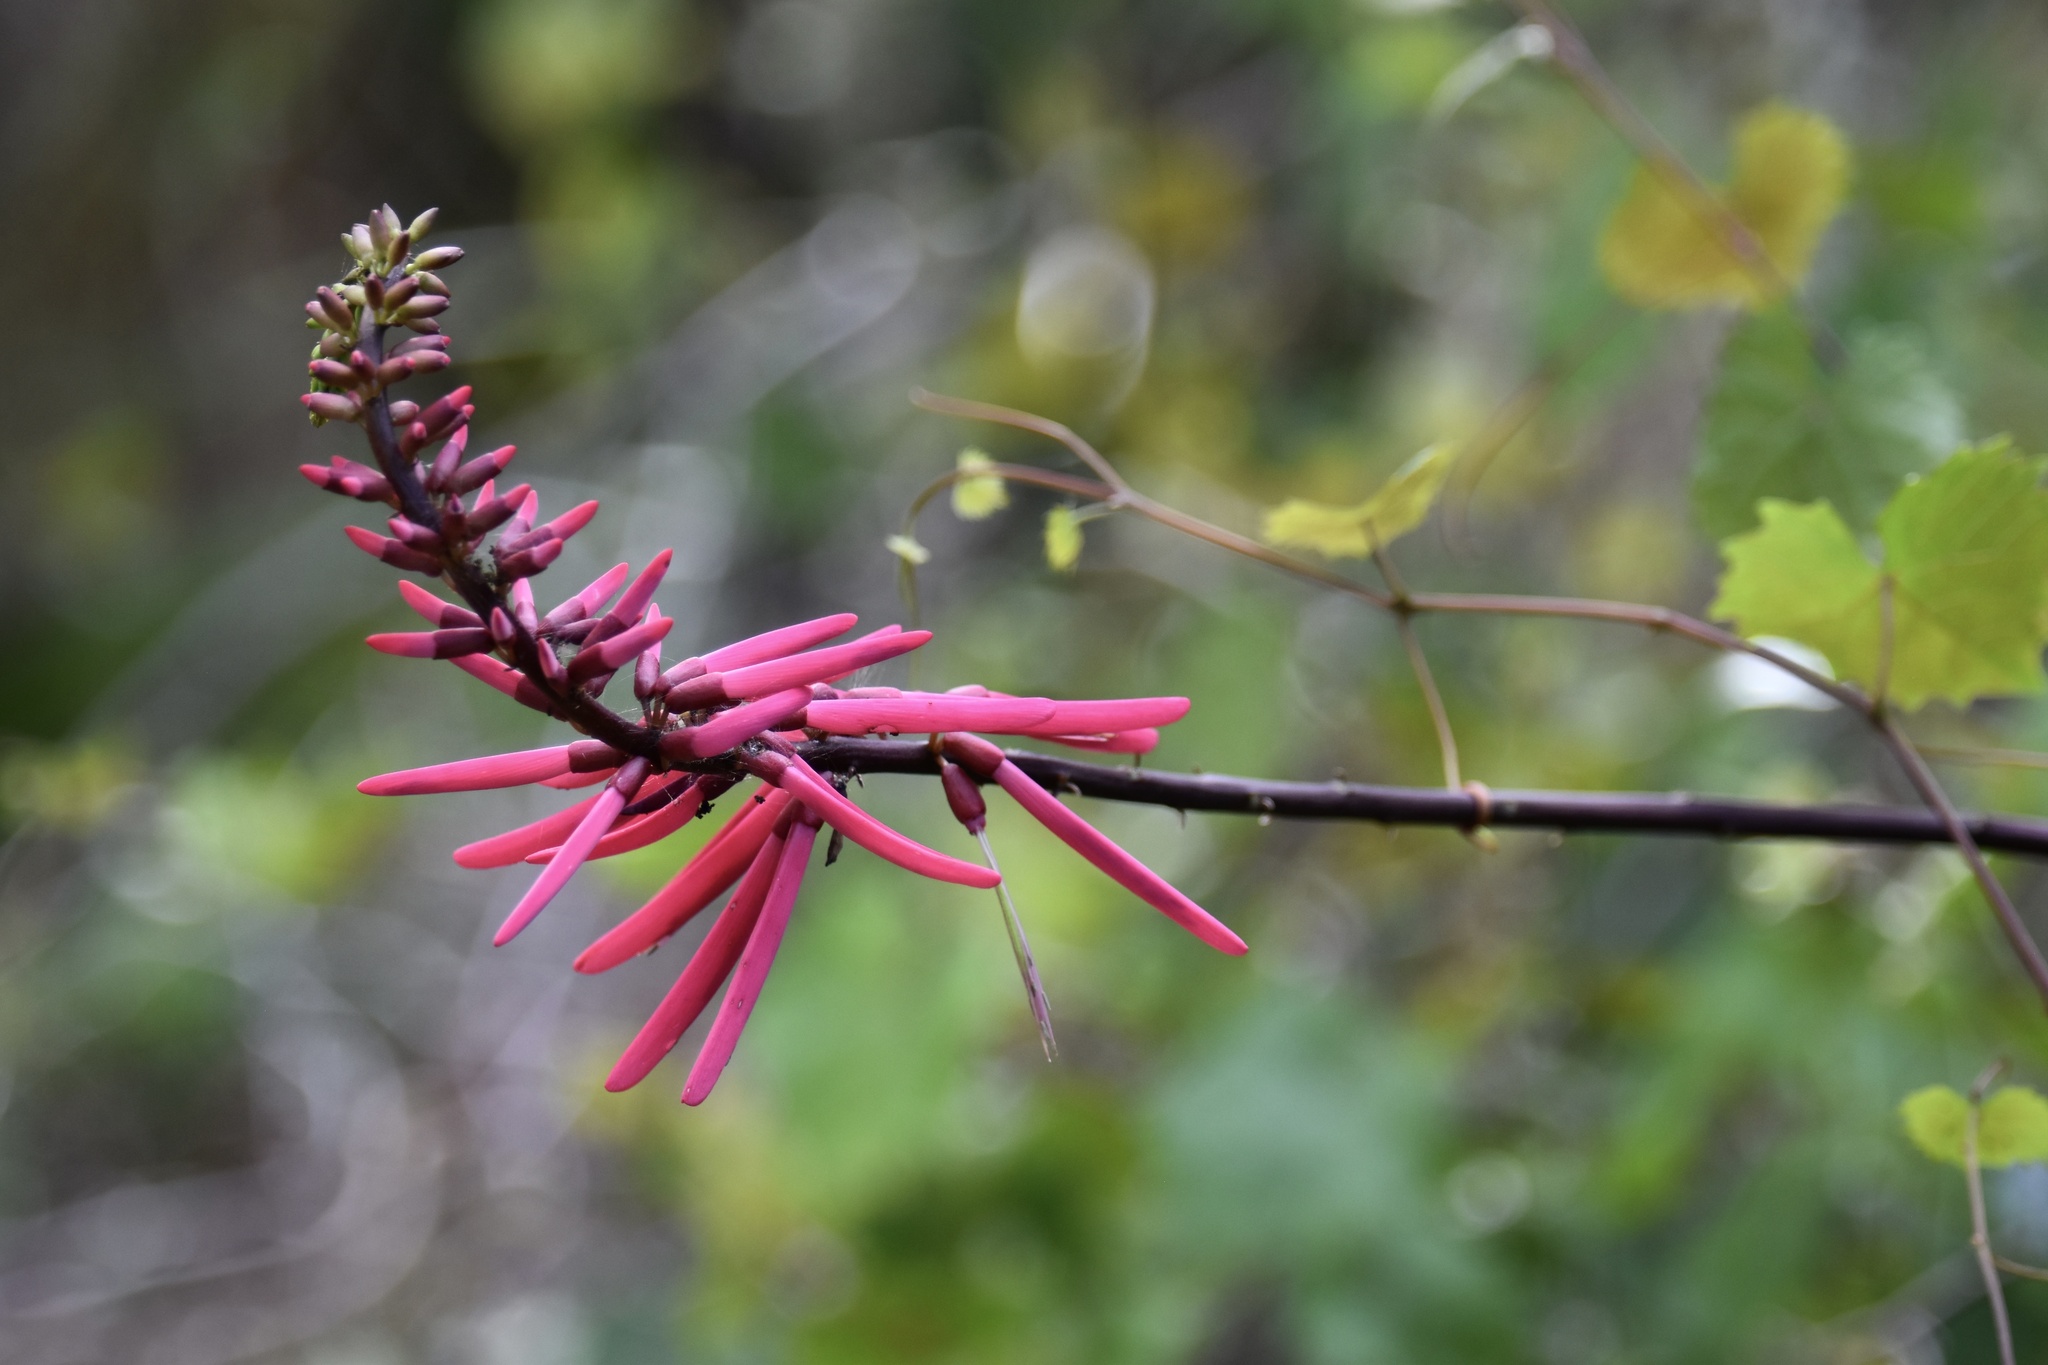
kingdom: Plantae
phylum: Tracheophyta
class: Magnoliopsida
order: Fabales
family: Fabaceae
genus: Erythrina
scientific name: Erythrina herbacea
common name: Coral-bean
